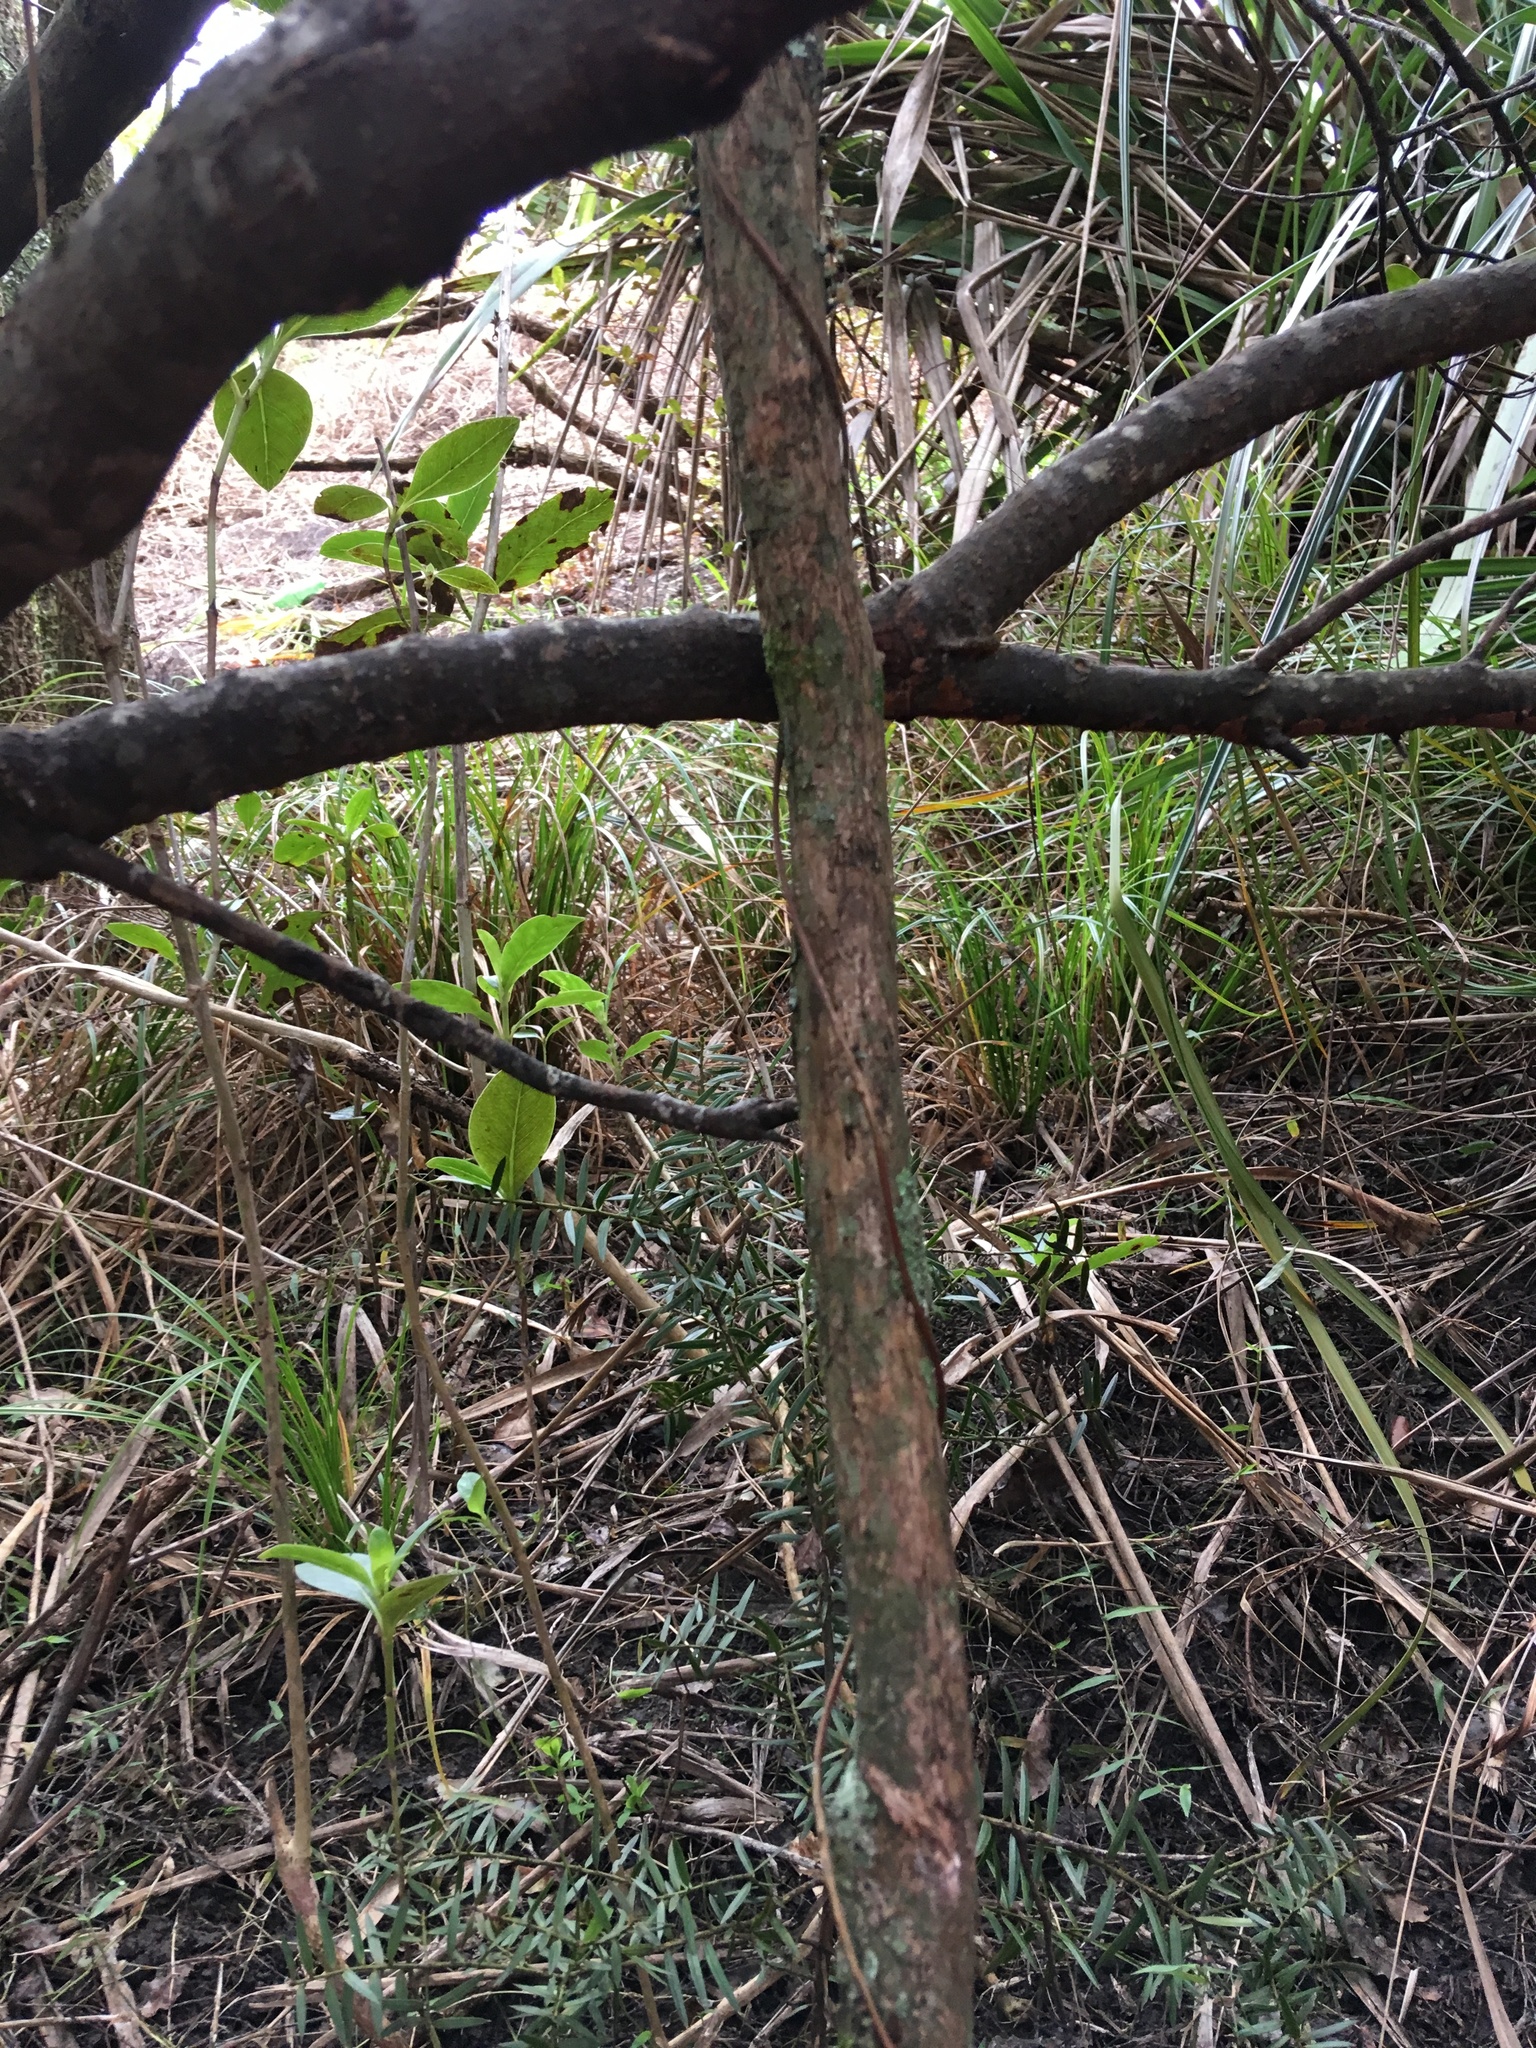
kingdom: Plantae
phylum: Tracheophyta
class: Pinopsida
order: Pinales
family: Podocarpaceae
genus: Podocarpus
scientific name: Podocarpus totara
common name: Totara
